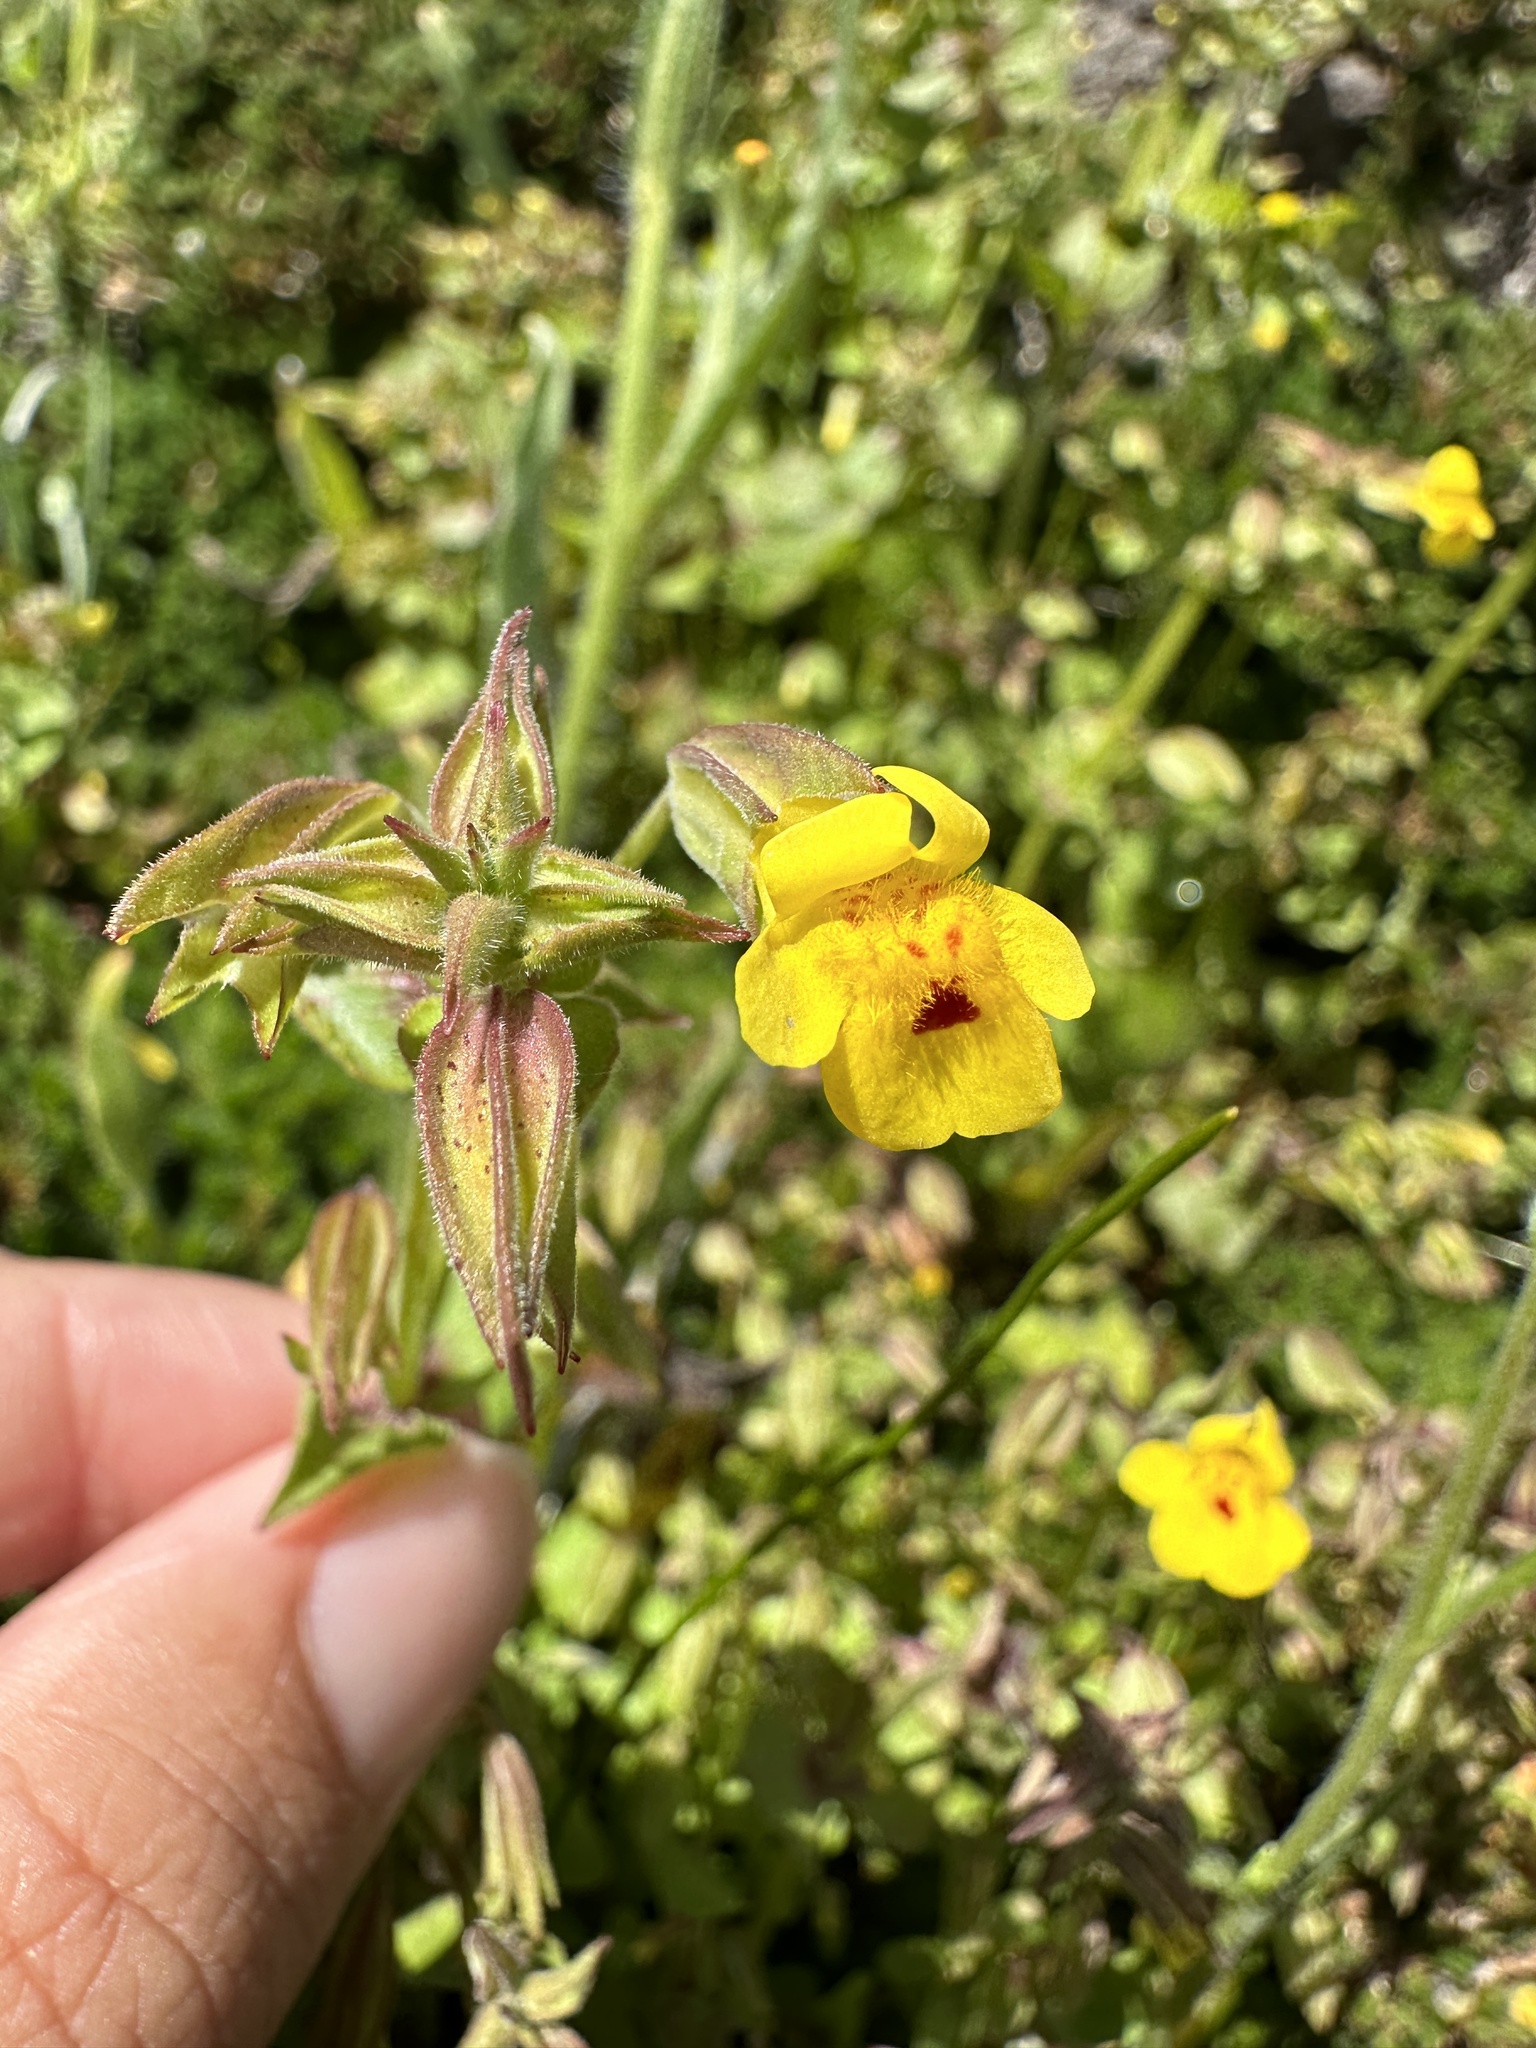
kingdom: Plantae
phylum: Tracheophyta
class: Magnoliopsida
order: Lamiales
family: Phrymaceae
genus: Erythranthe
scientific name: Erythranthe nasuta
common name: Sooke monkeyflower
